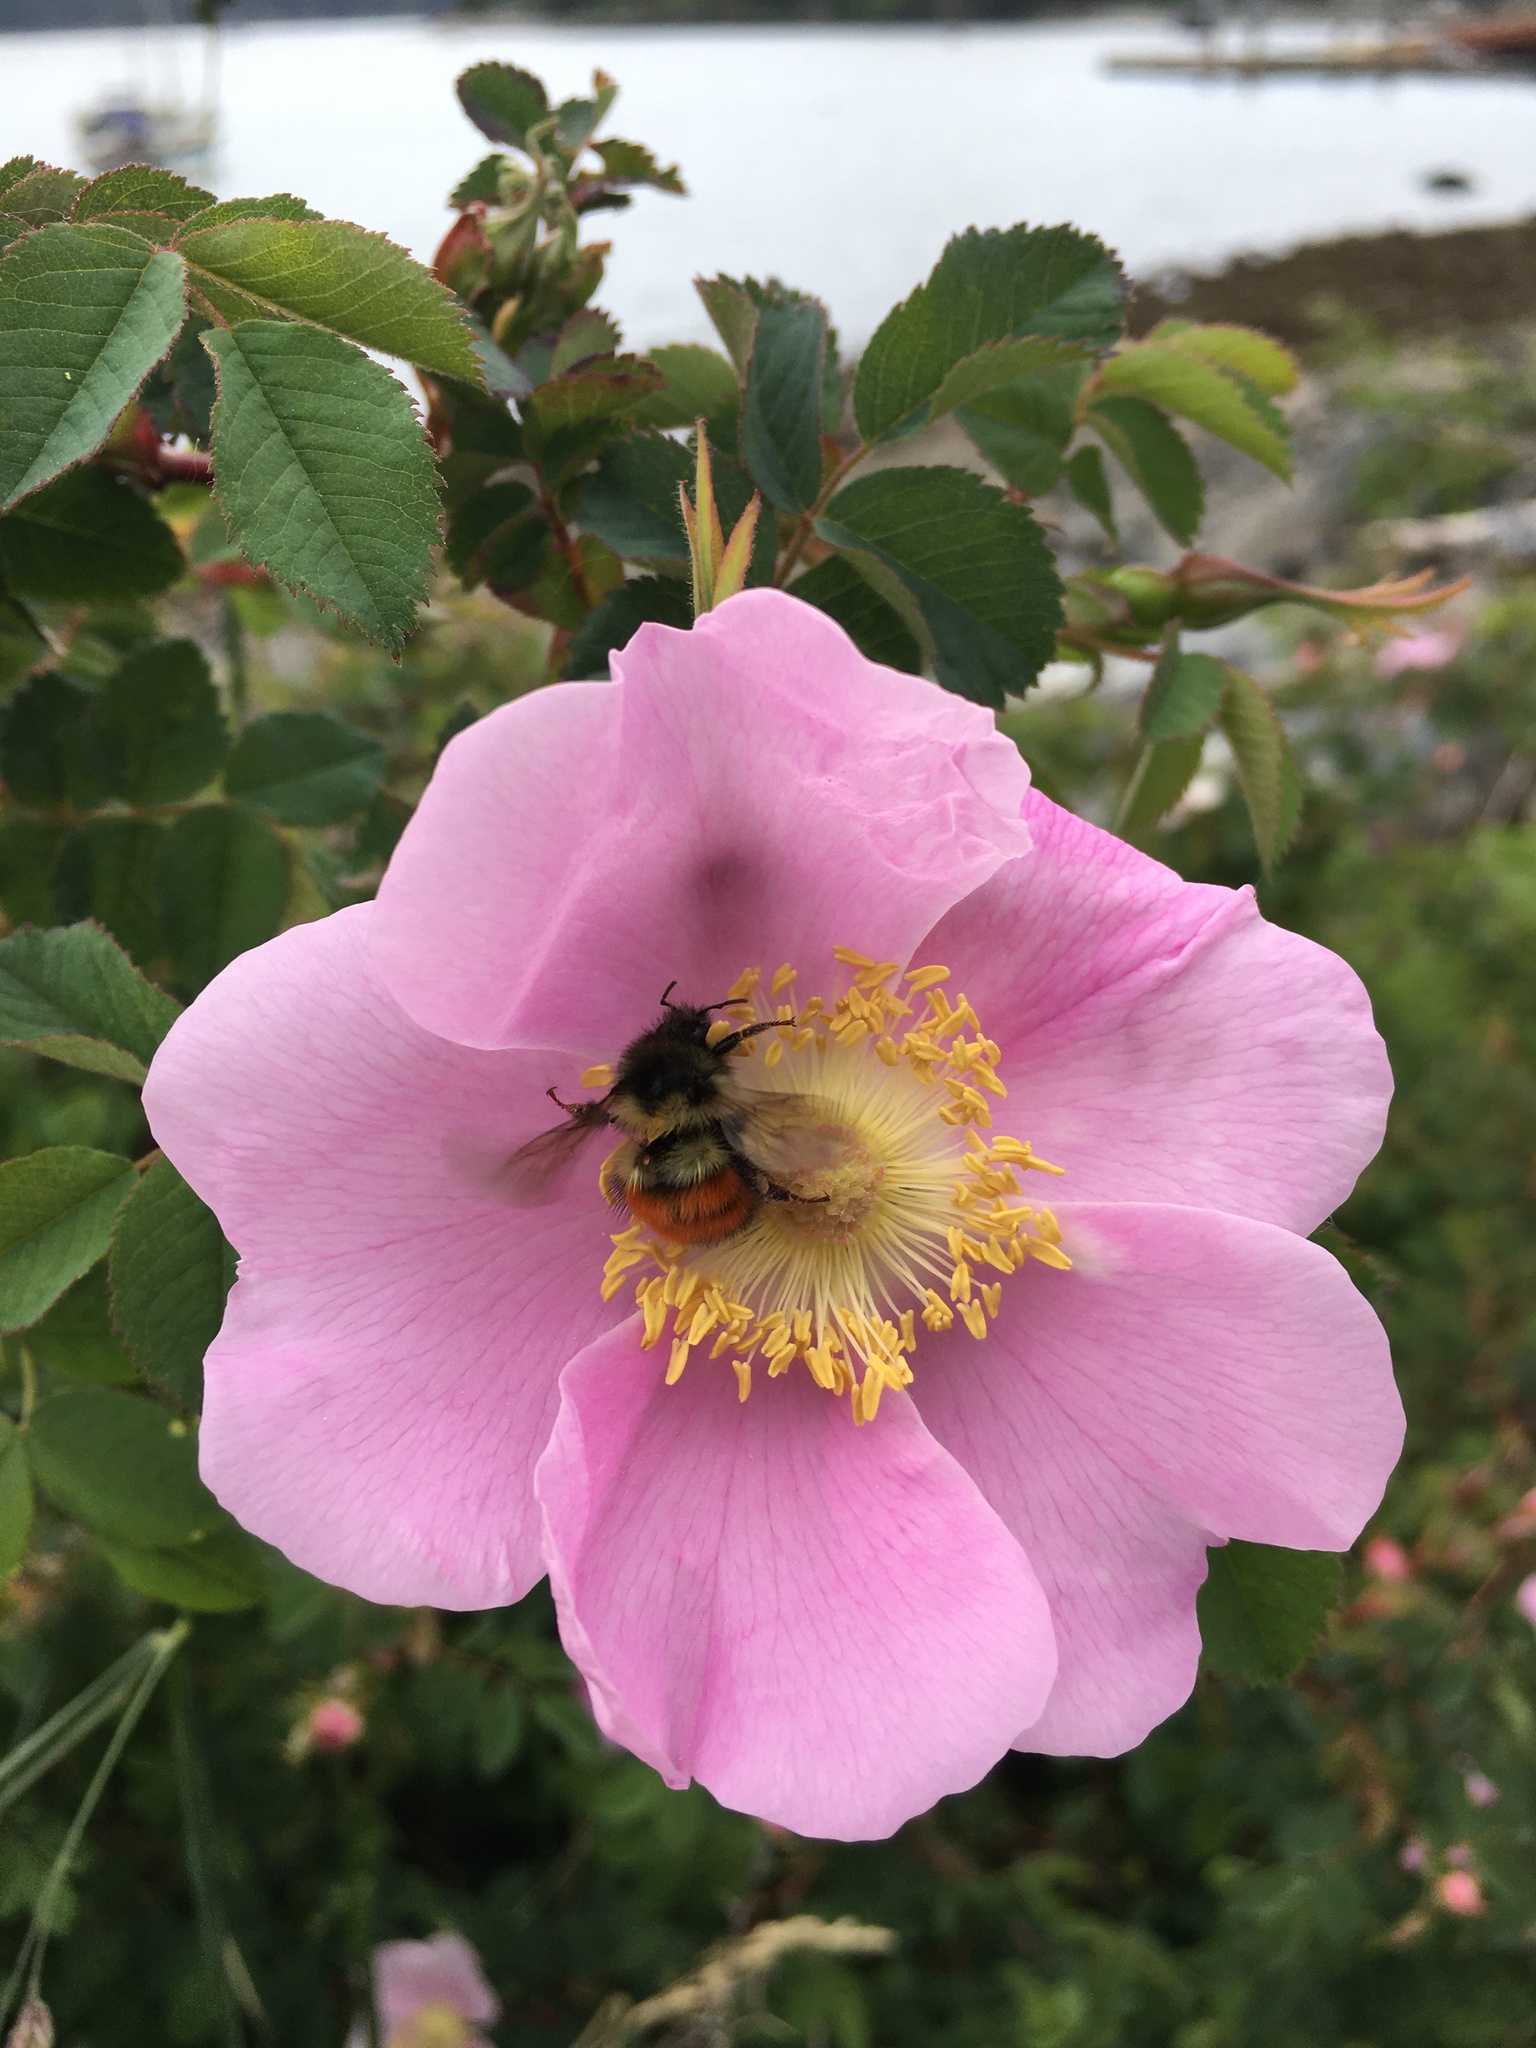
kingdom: Animalia
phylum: Arthropoda
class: Insecta
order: Hymenoptera
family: Apidae
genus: Bombus
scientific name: Bombus melanopygus
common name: Black tail bumble bee
